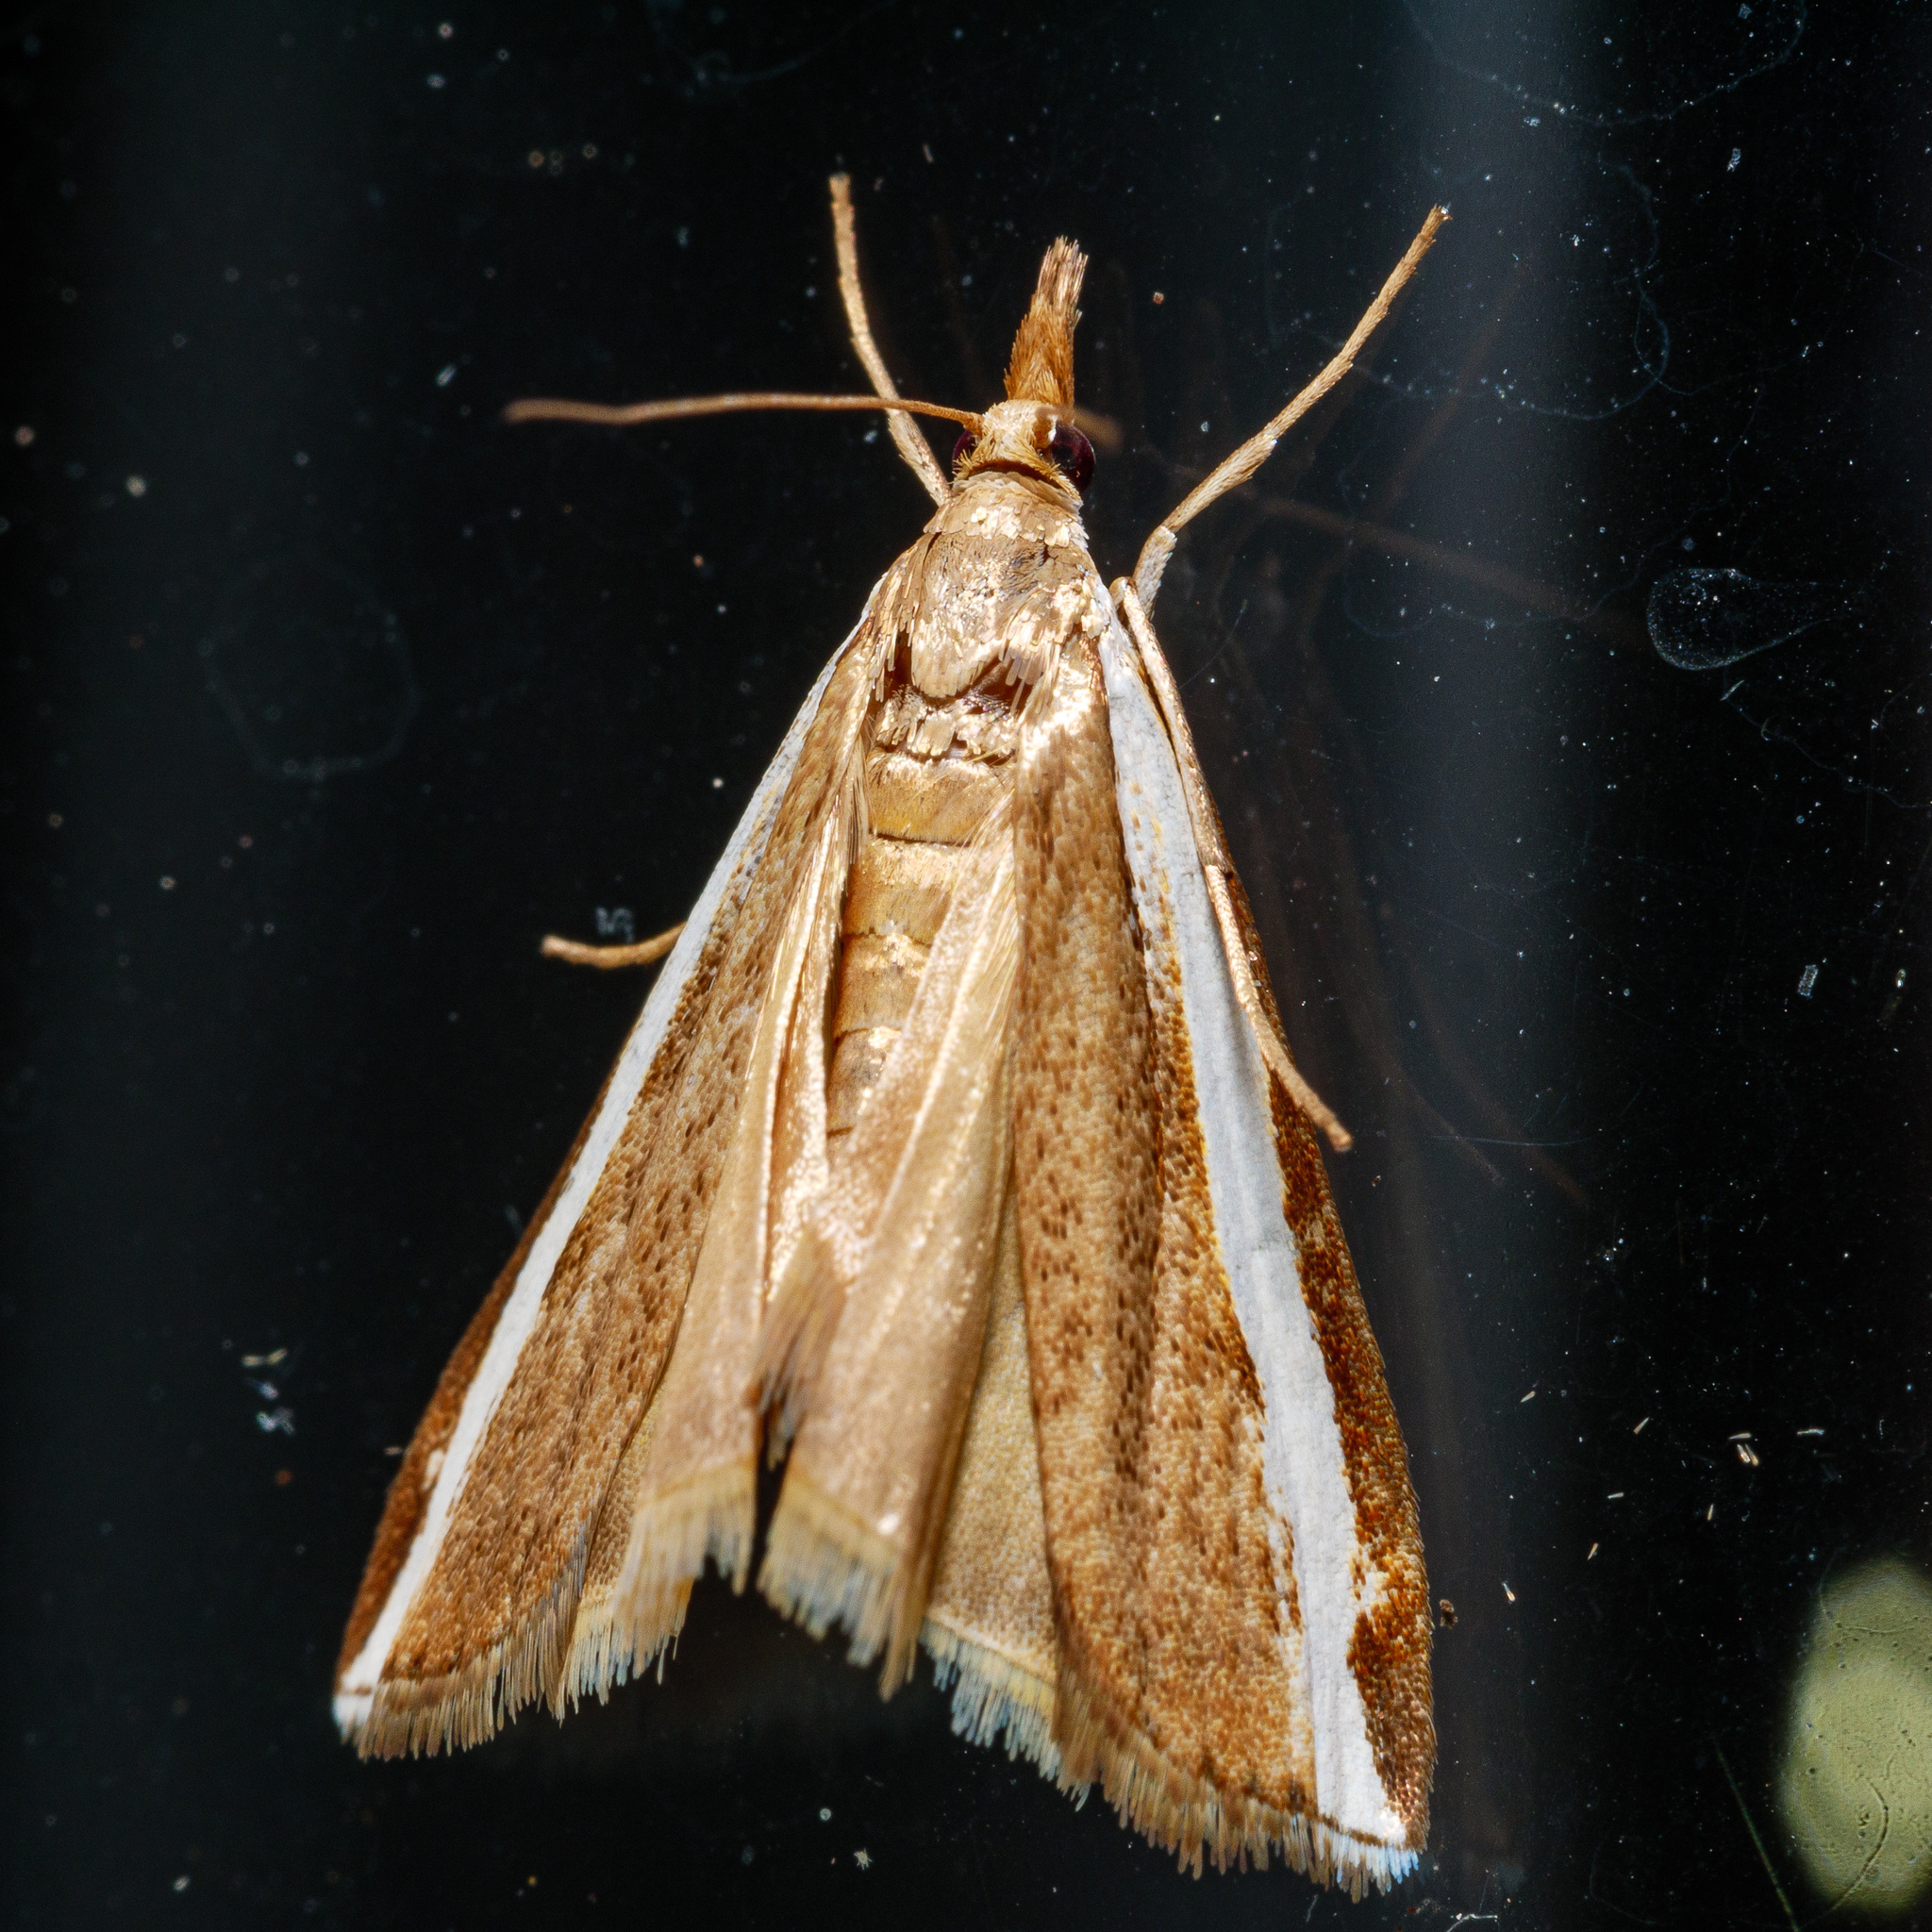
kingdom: Animalia
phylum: Arthropoda
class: Insecta
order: Lepidoptera
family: Crambidae
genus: Orocrambus
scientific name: Orocrambus flexuosellus
